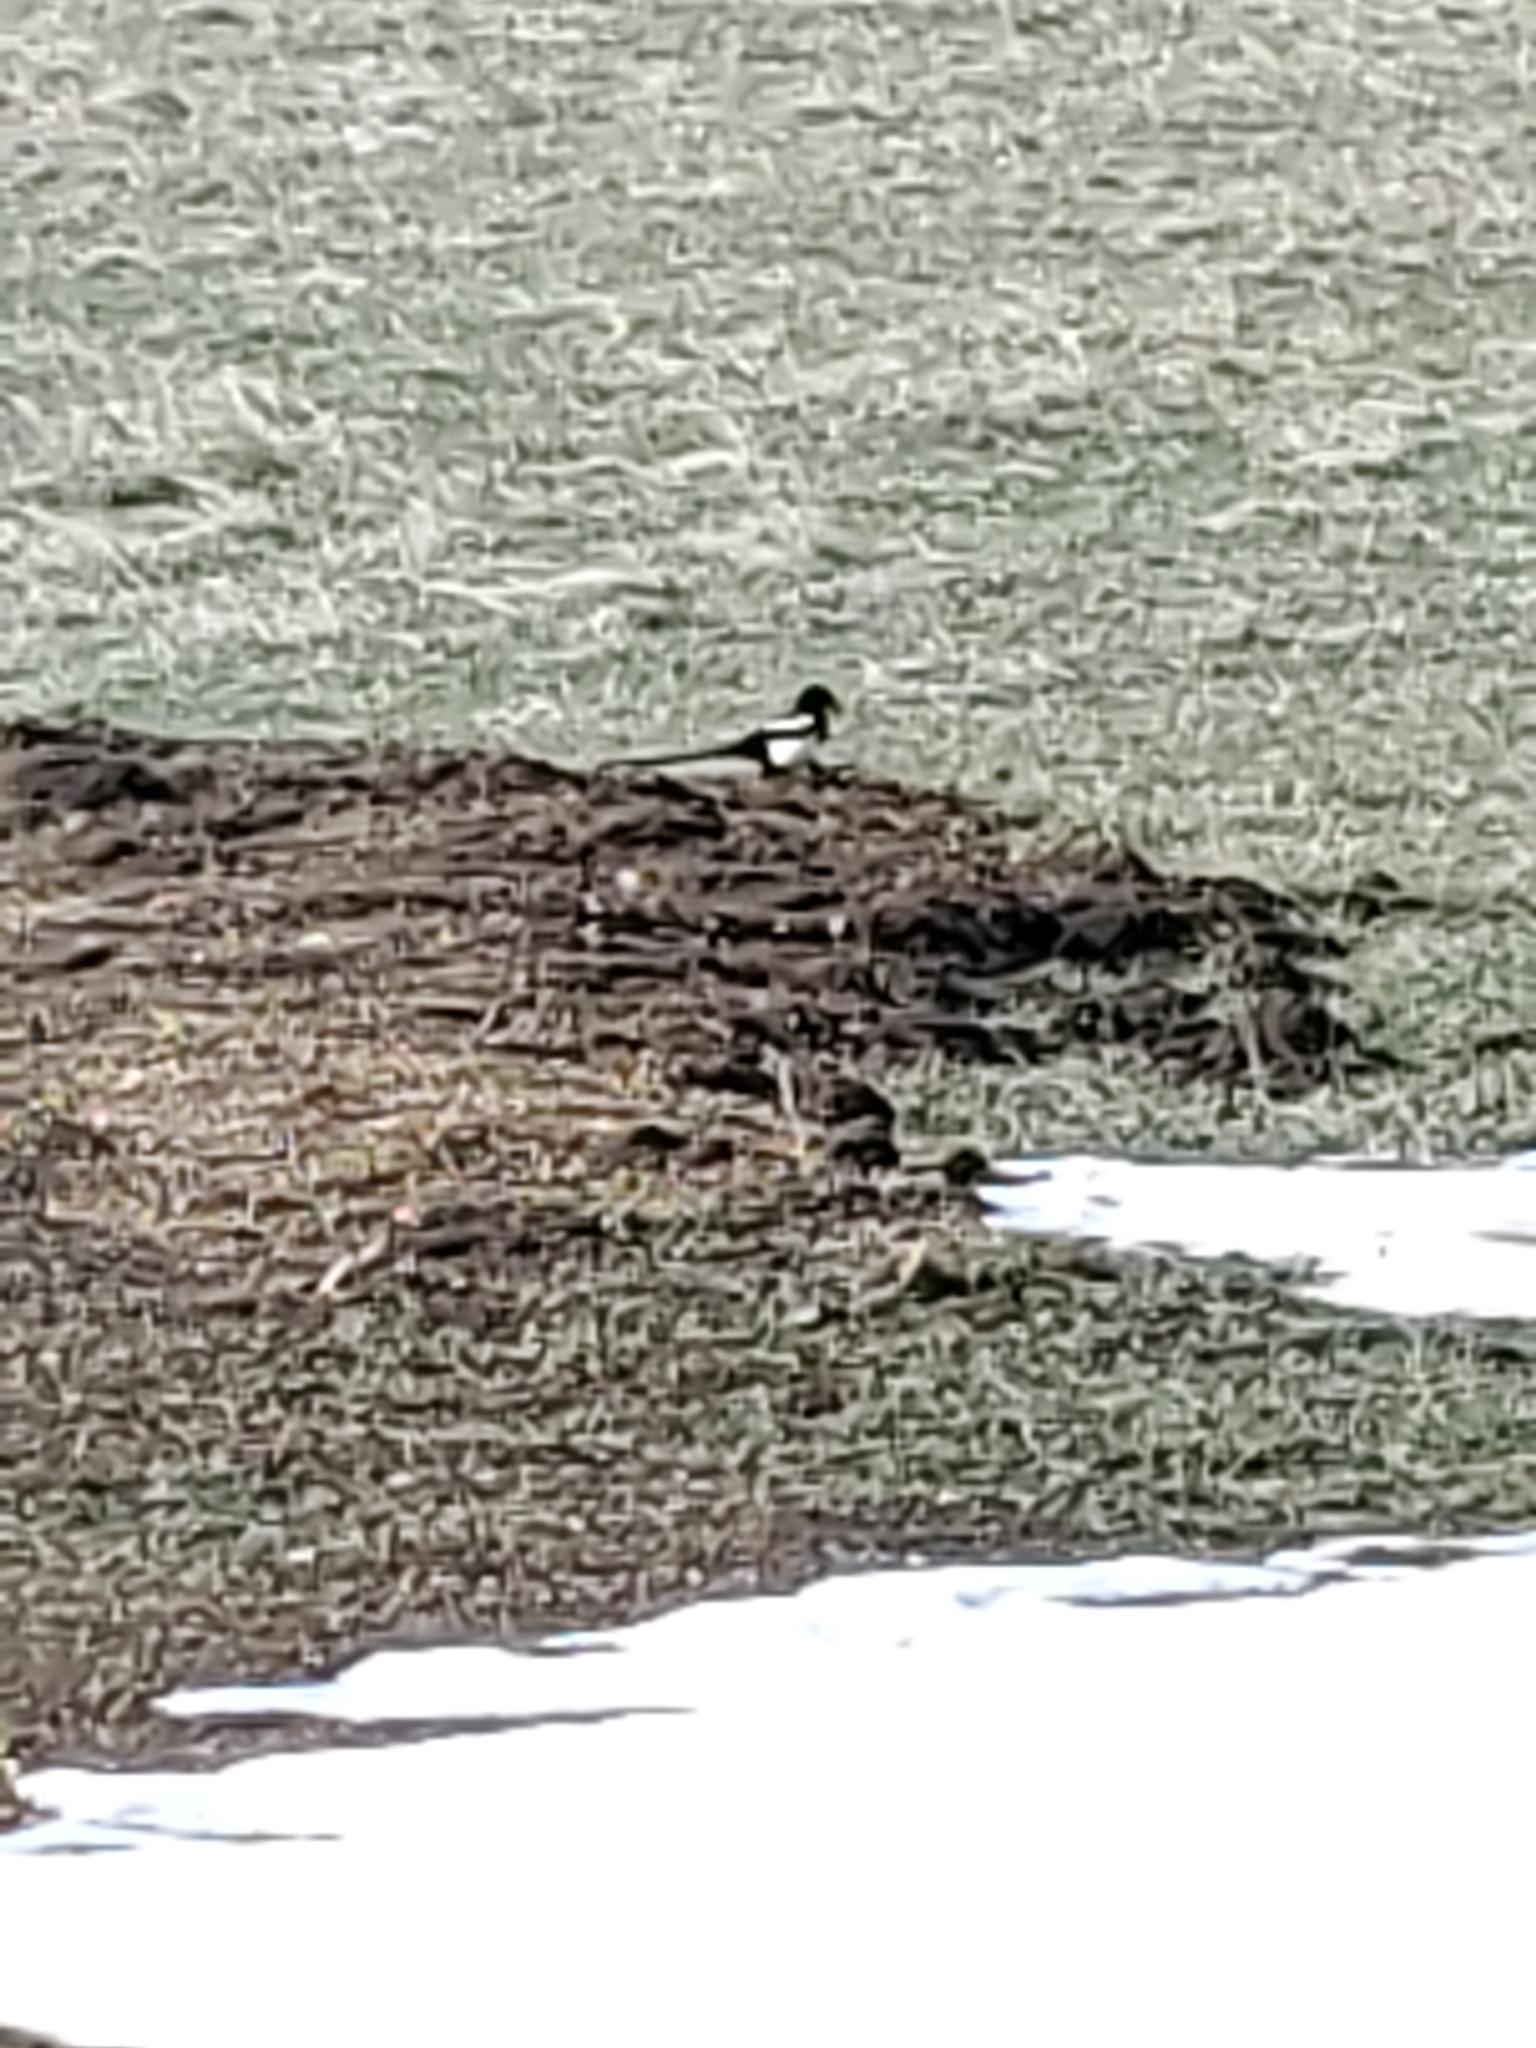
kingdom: Animalia
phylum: Chordata
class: Aves
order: Passeriformes
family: Corvidae
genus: Pica
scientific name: Pica hudsonia
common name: Black-billed magpie
